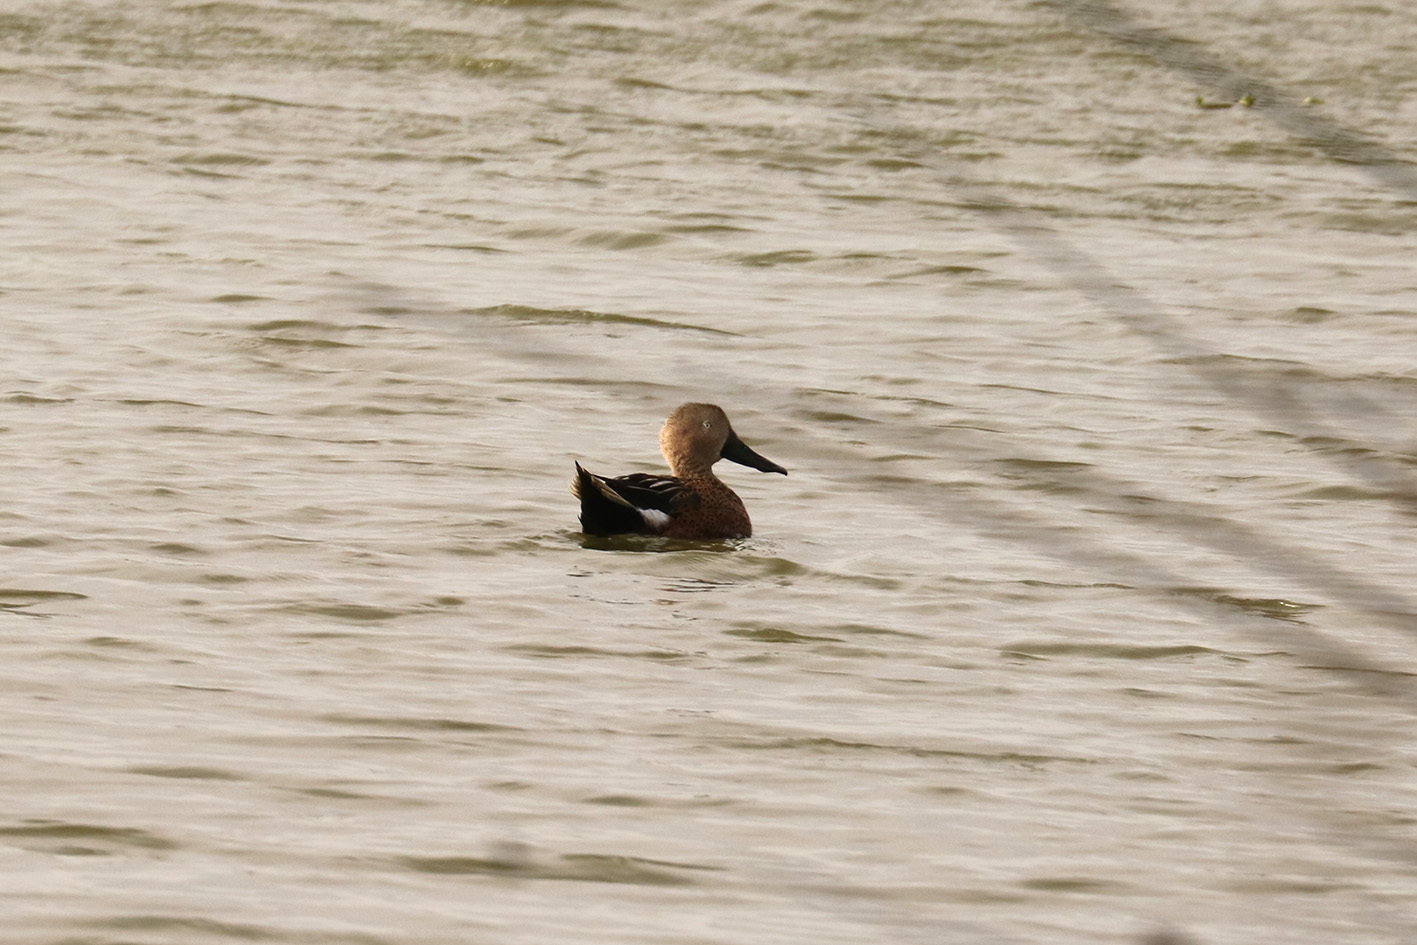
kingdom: Animalia
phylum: Chordata
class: Aves
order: Anseriformes
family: Anatidae
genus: Spatula
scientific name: Spatula platalea
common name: Red shoveler
